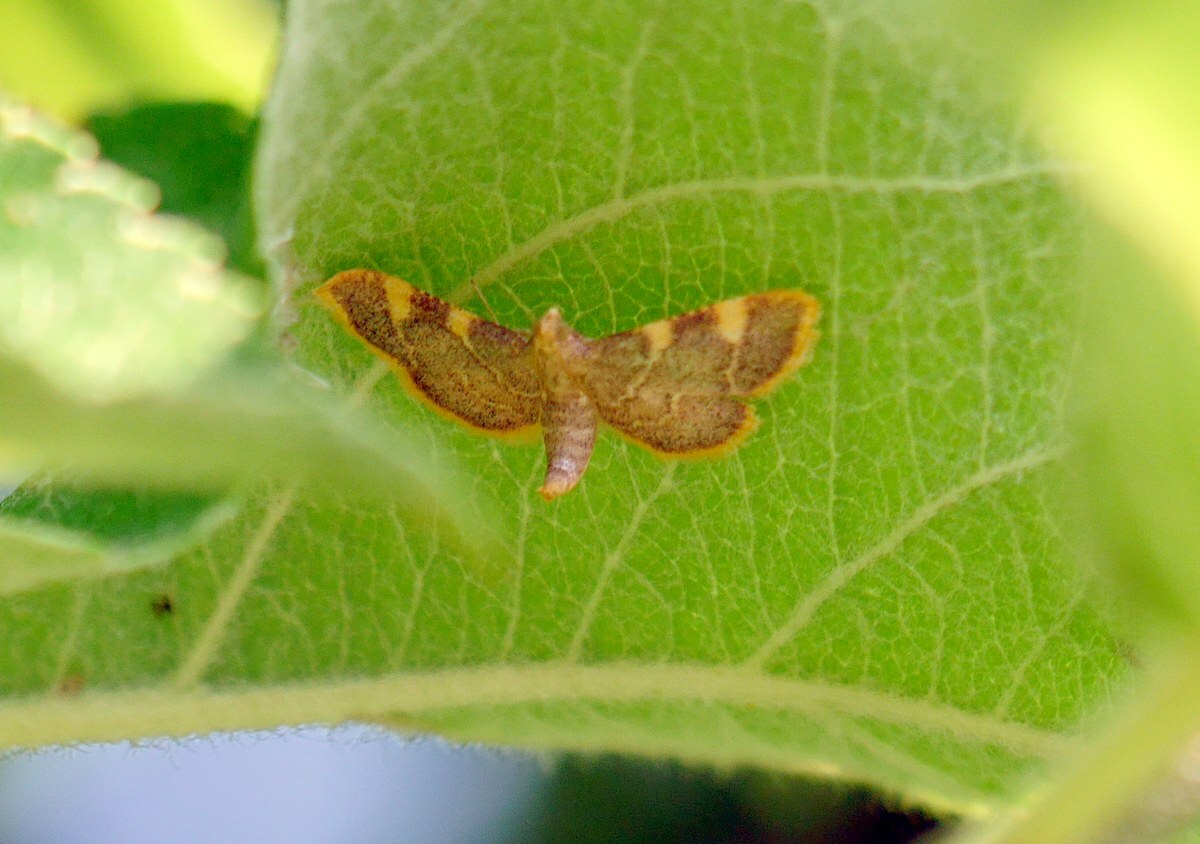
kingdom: Animalia
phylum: Arthropoda
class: Insecta
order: Lepidoptera
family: Pyralidae
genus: Hypsopygia
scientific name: Hypsopygia costalis
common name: Gold triangle
